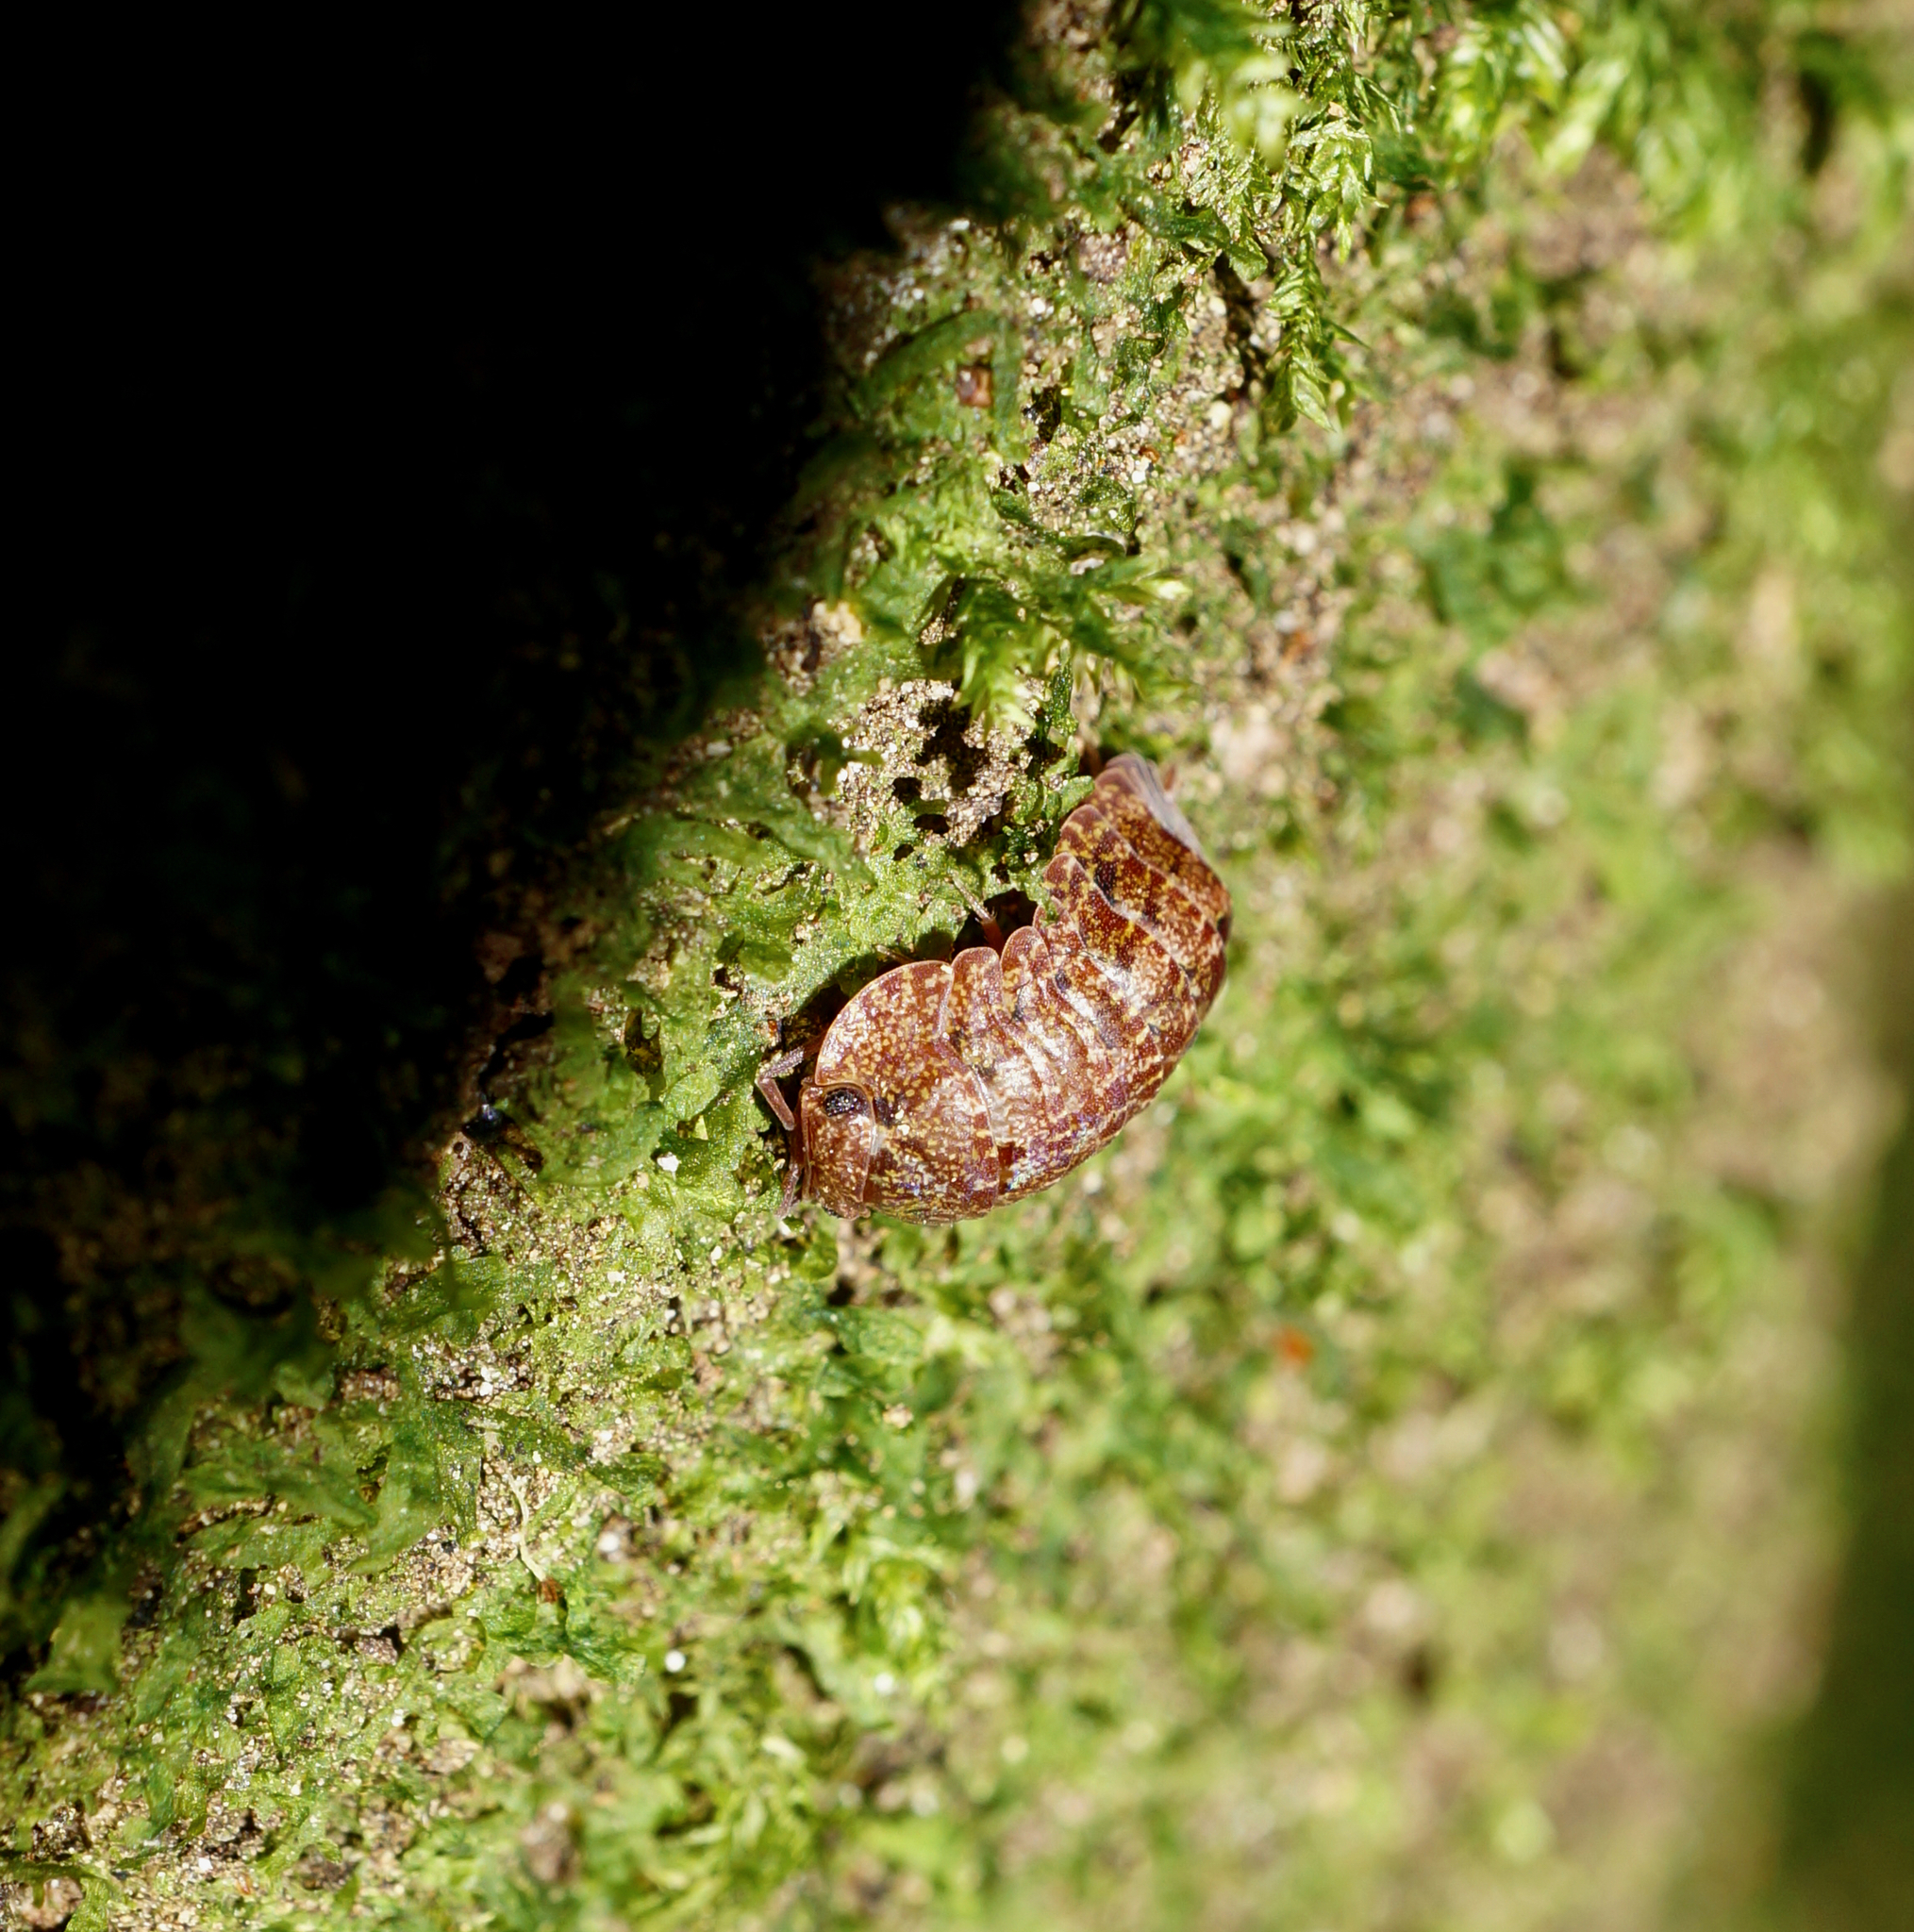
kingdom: Animalia
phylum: Arthropoda
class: Malacostraca
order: Isopoda
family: Armadillidae
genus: Cubaris
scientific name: Cubaris tarangensis
